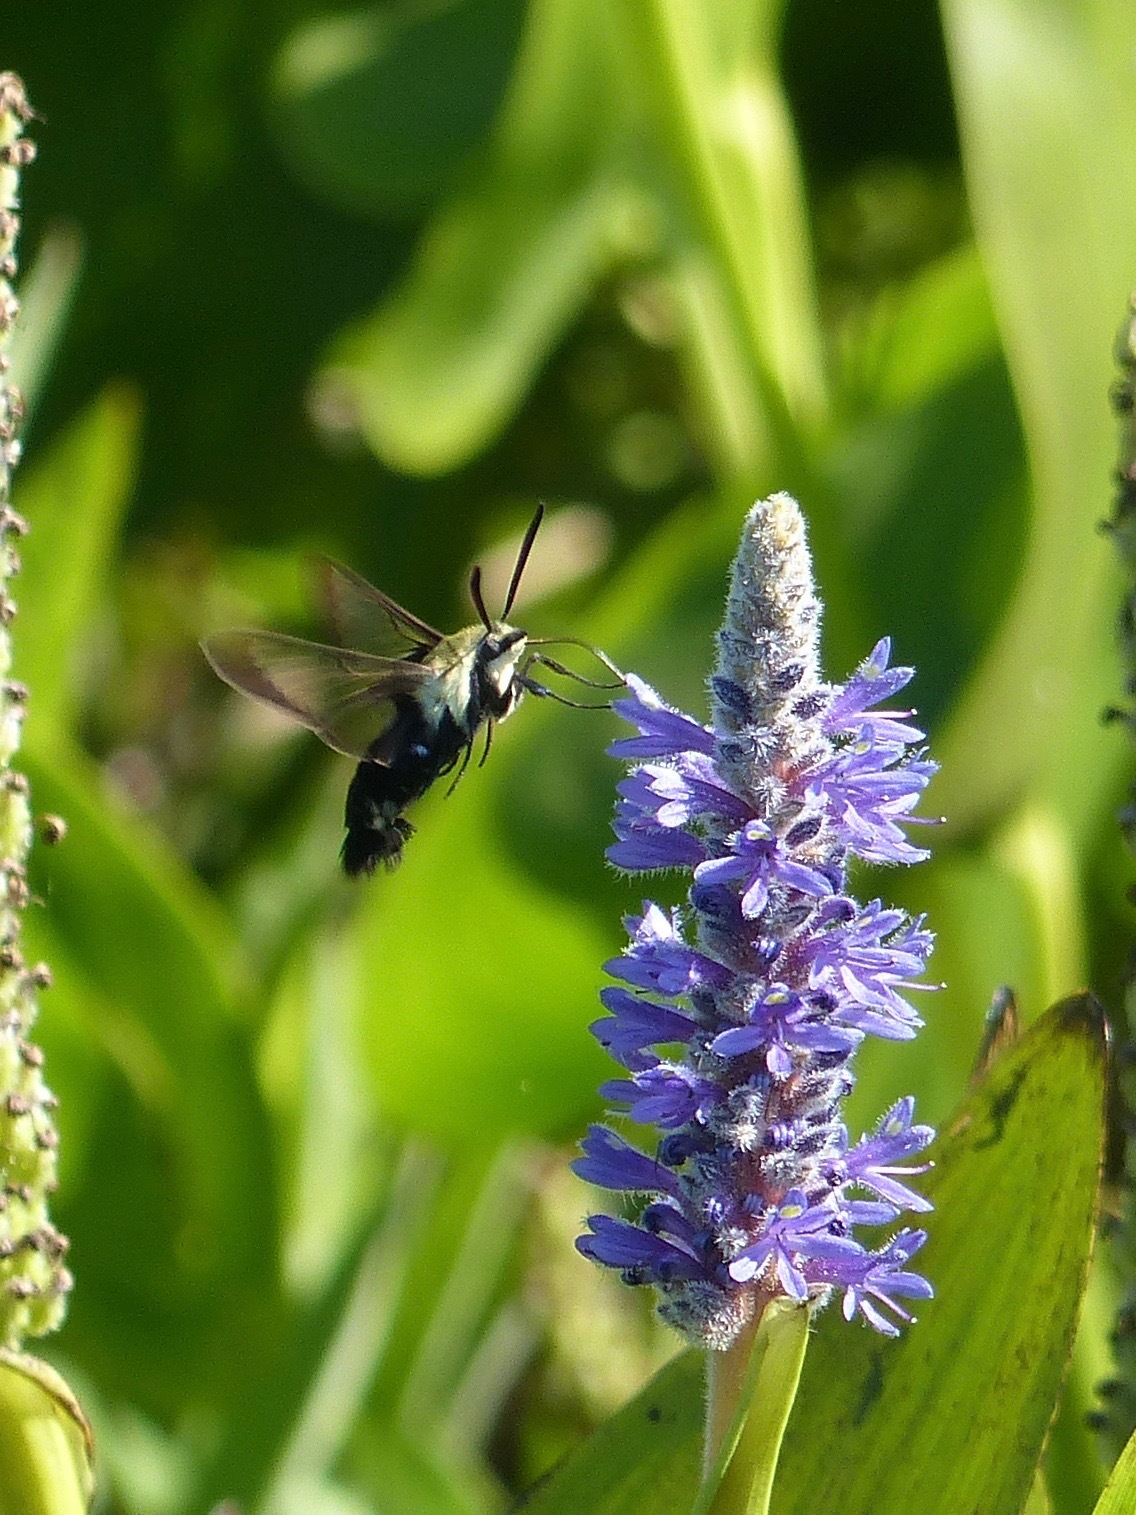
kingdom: Animalia
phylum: Arthropoda
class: Insecta
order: Lepidoptera
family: Sphingidae
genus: Hemaris
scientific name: Hemaris diffinis
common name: Bumblebee moth
